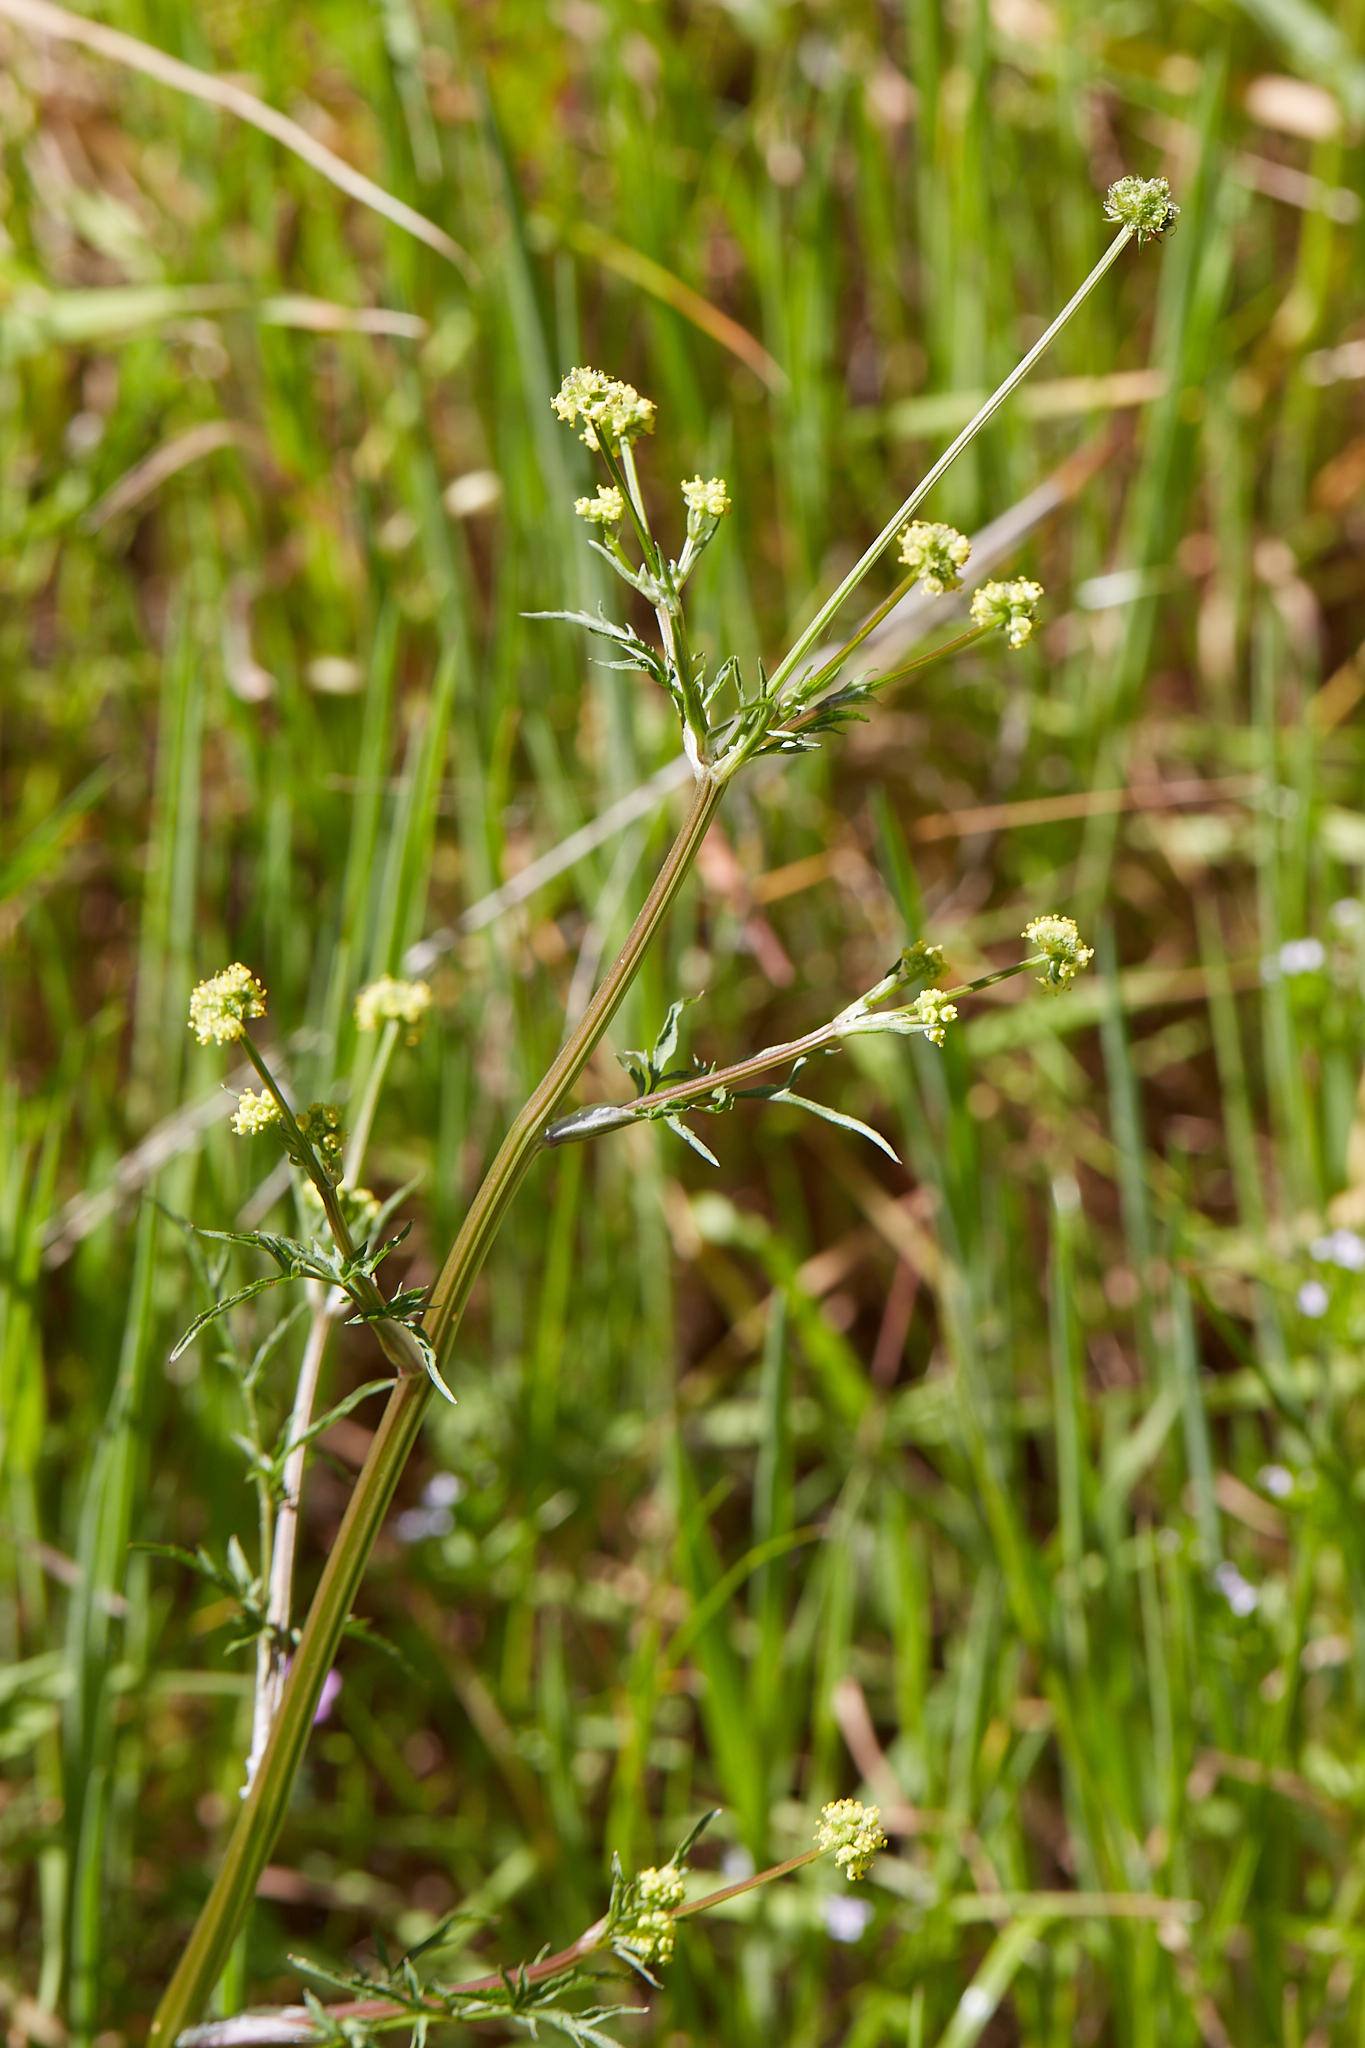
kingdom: Plantae
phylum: Tracheophyta
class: Magnoliopsida
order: Apiales
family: Apiaceae
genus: Sanicula
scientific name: Sanicula bipinnata
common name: Poison sanicle
